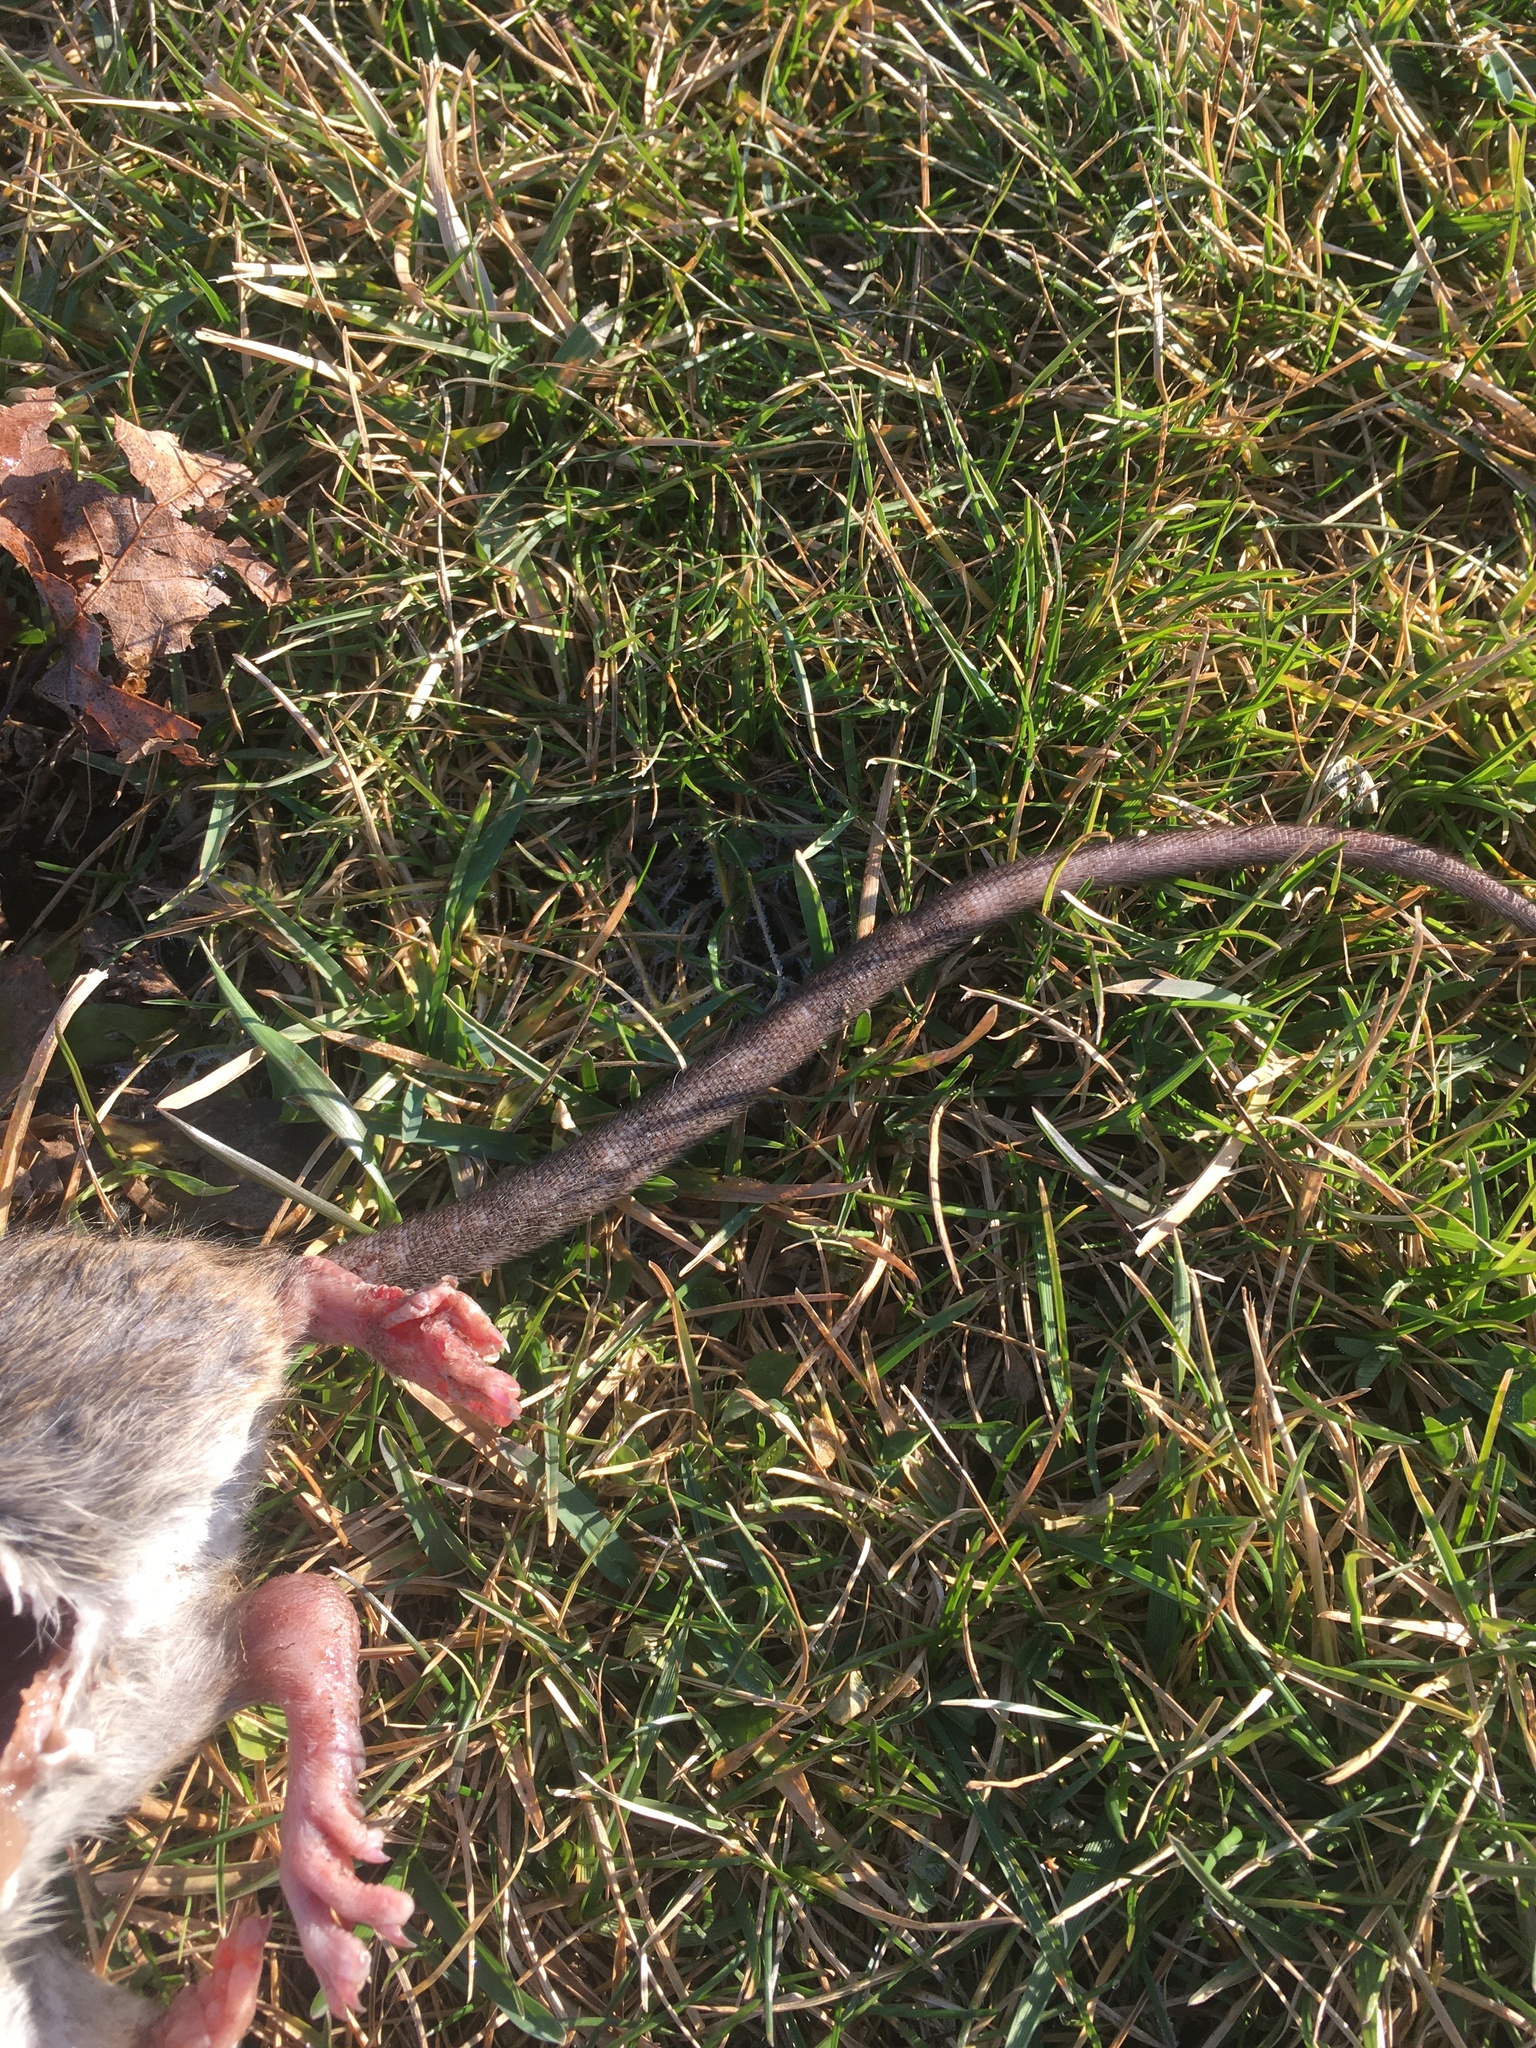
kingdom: Animalia
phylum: Chordata
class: Mammalia
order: Rodentia
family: Muridae
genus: Rattus
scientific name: Rattus norvegicus
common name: Brown rat
